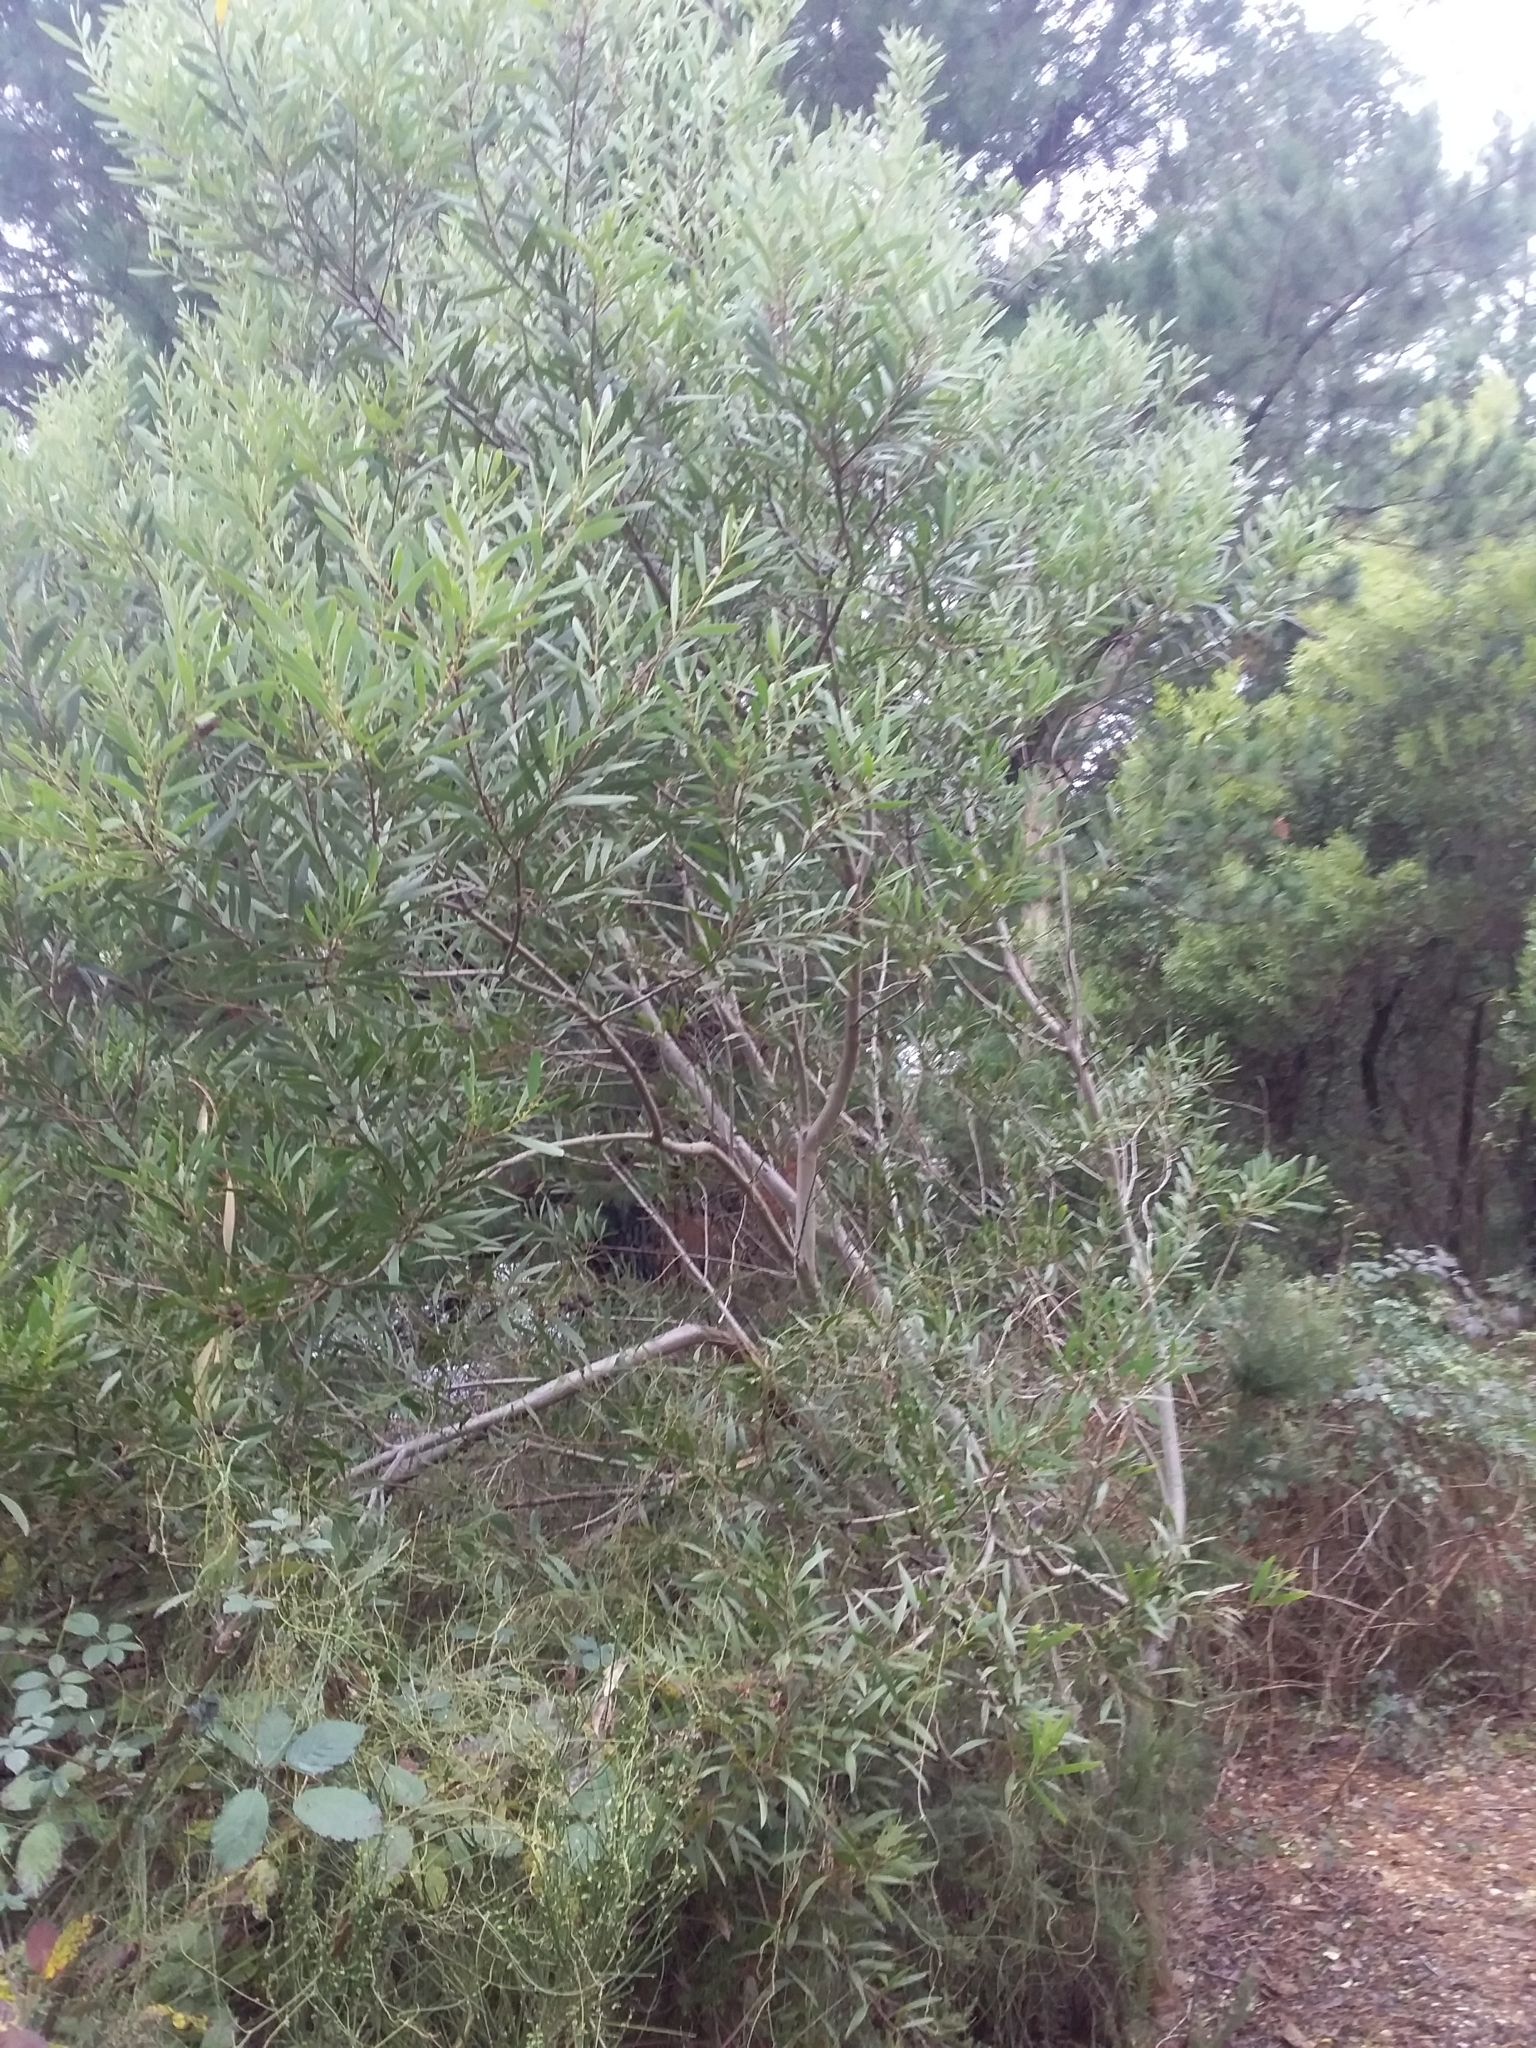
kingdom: Plantae
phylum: Tracheophyta
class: Magnoliopsida
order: Fabales
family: Fabaceae
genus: Acacia
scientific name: Acacia longifolia
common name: Sydney golden wattle
